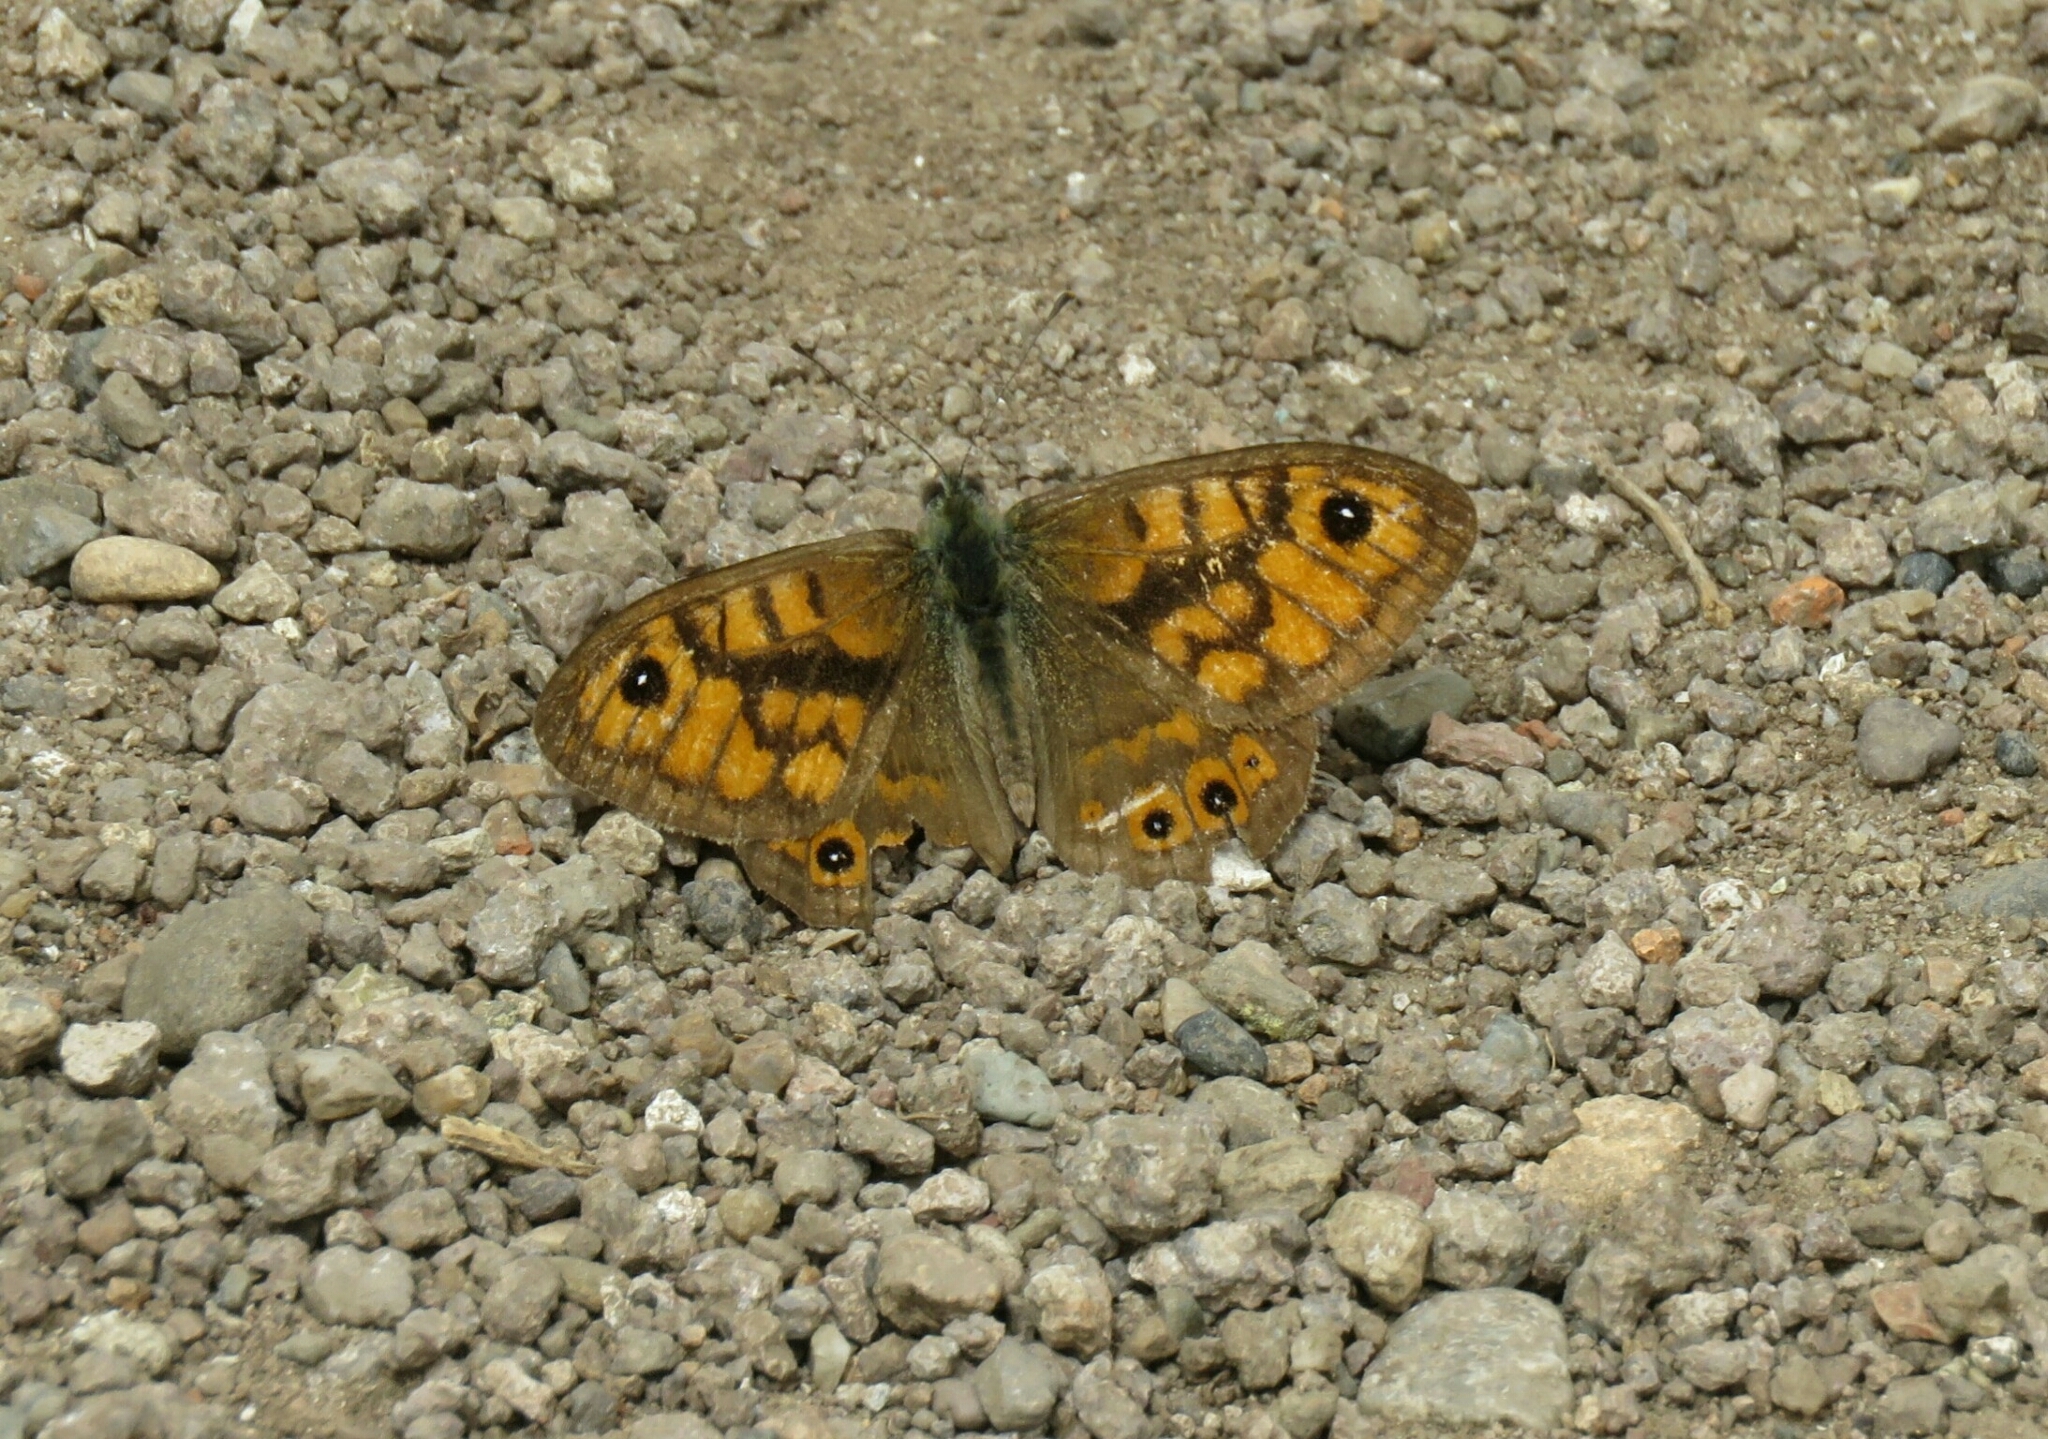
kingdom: Animalia
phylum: Arthropoda
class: Insecta
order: Lepidoptera
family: Nymphalidae
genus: Pararge
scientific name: Pararge Lasiommata megera
